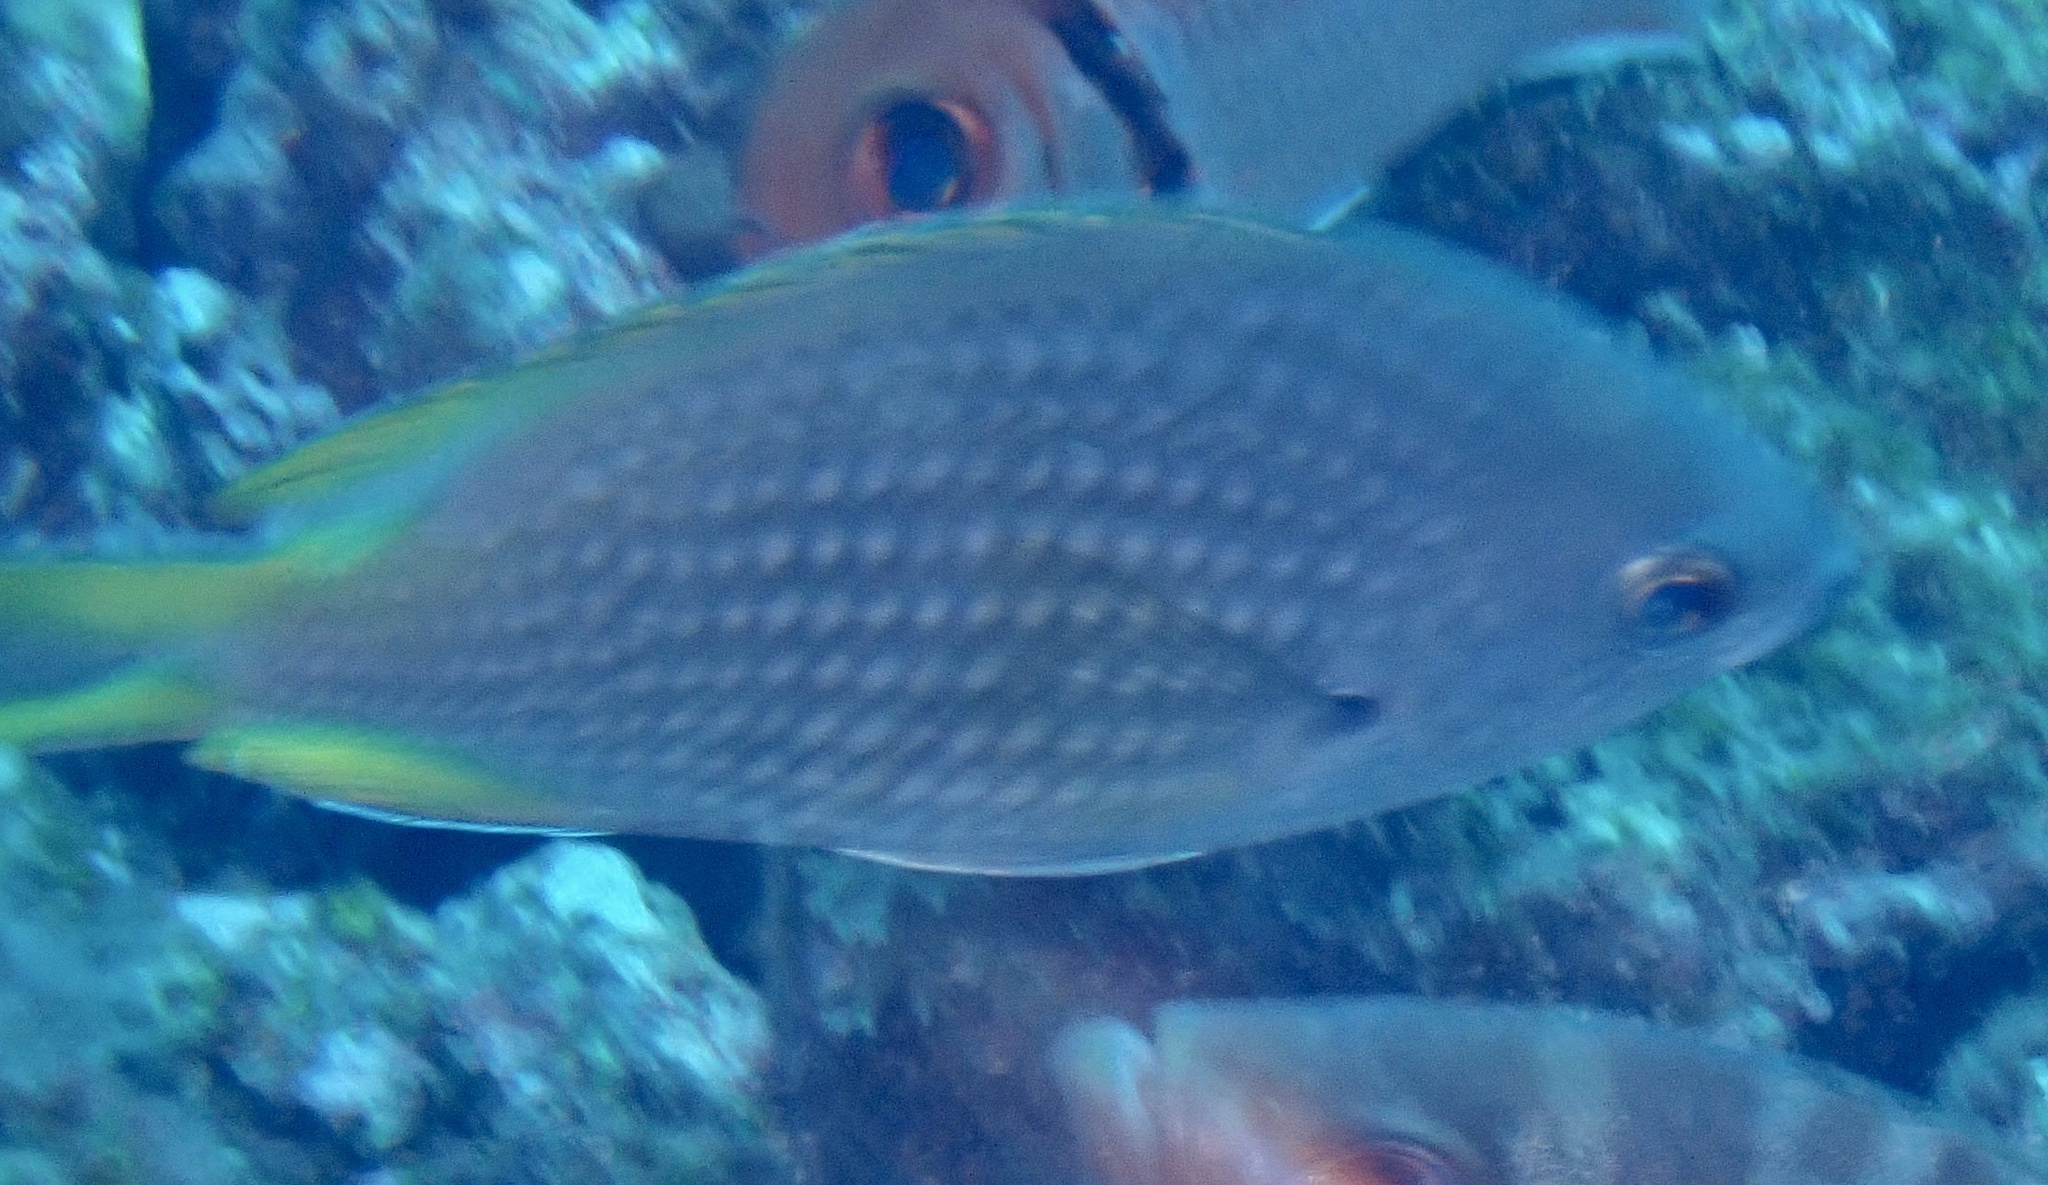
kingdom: Animalia
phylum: Chordata
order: Perciformes
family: Pomacentridae
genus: Chromis
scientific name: Chromis lubbocki
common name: Lubbock's chromis
